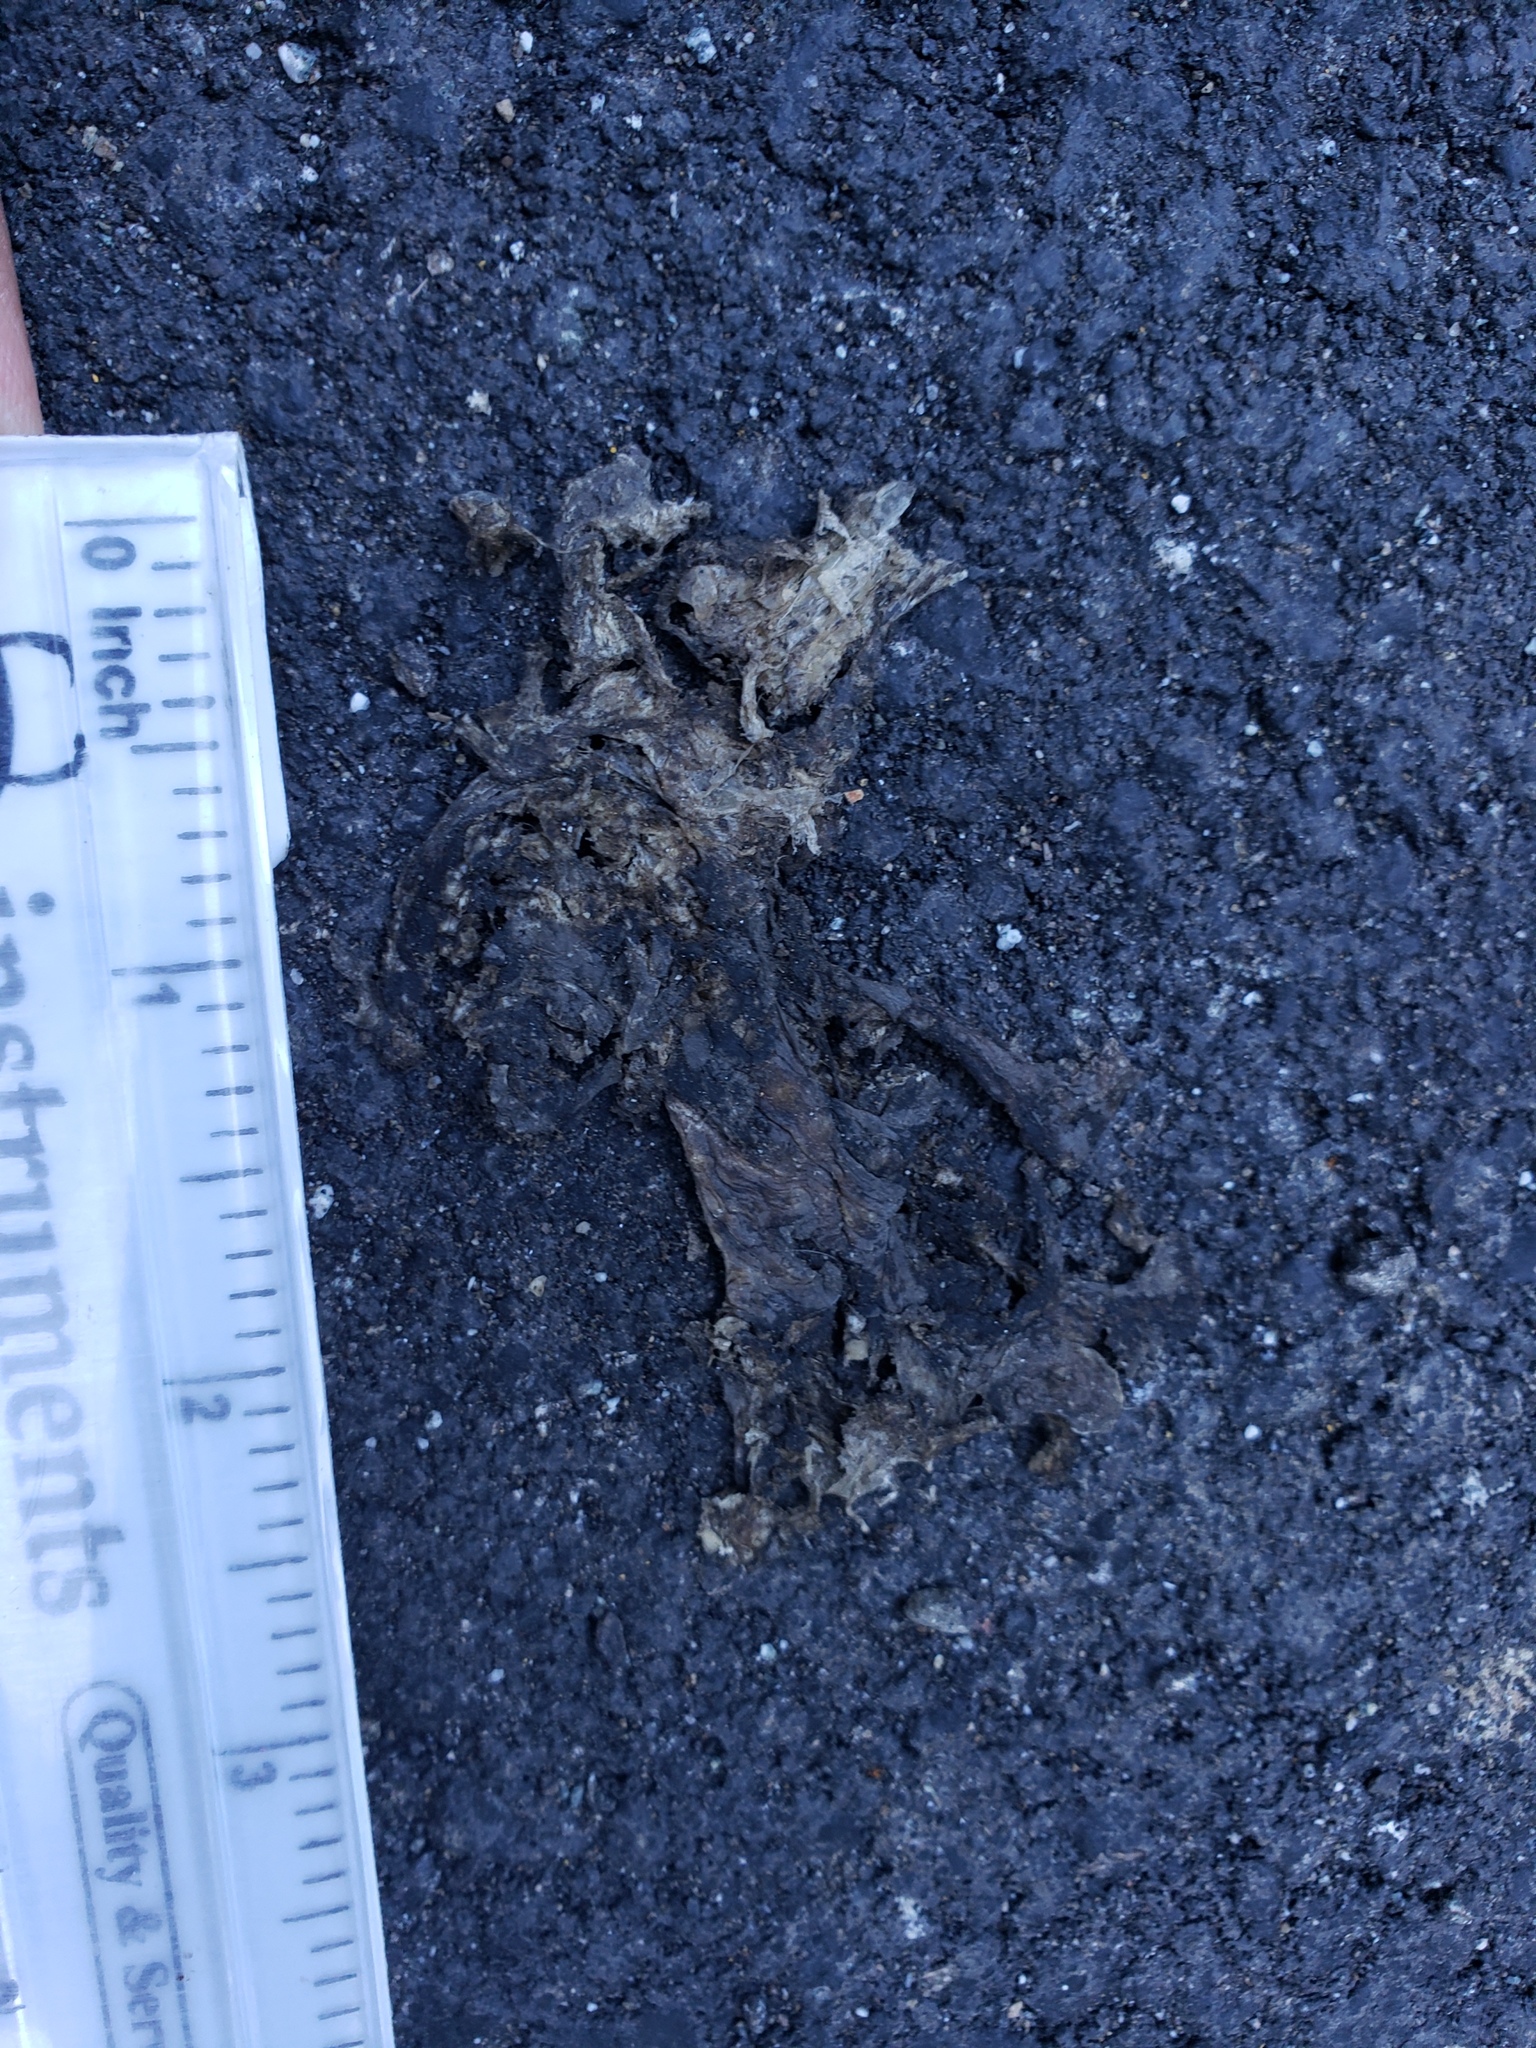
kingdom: Animalia
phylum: Chordata
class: Amphibia
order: Caudata
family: Salamandridae
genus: Taricha
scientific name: Taricha
